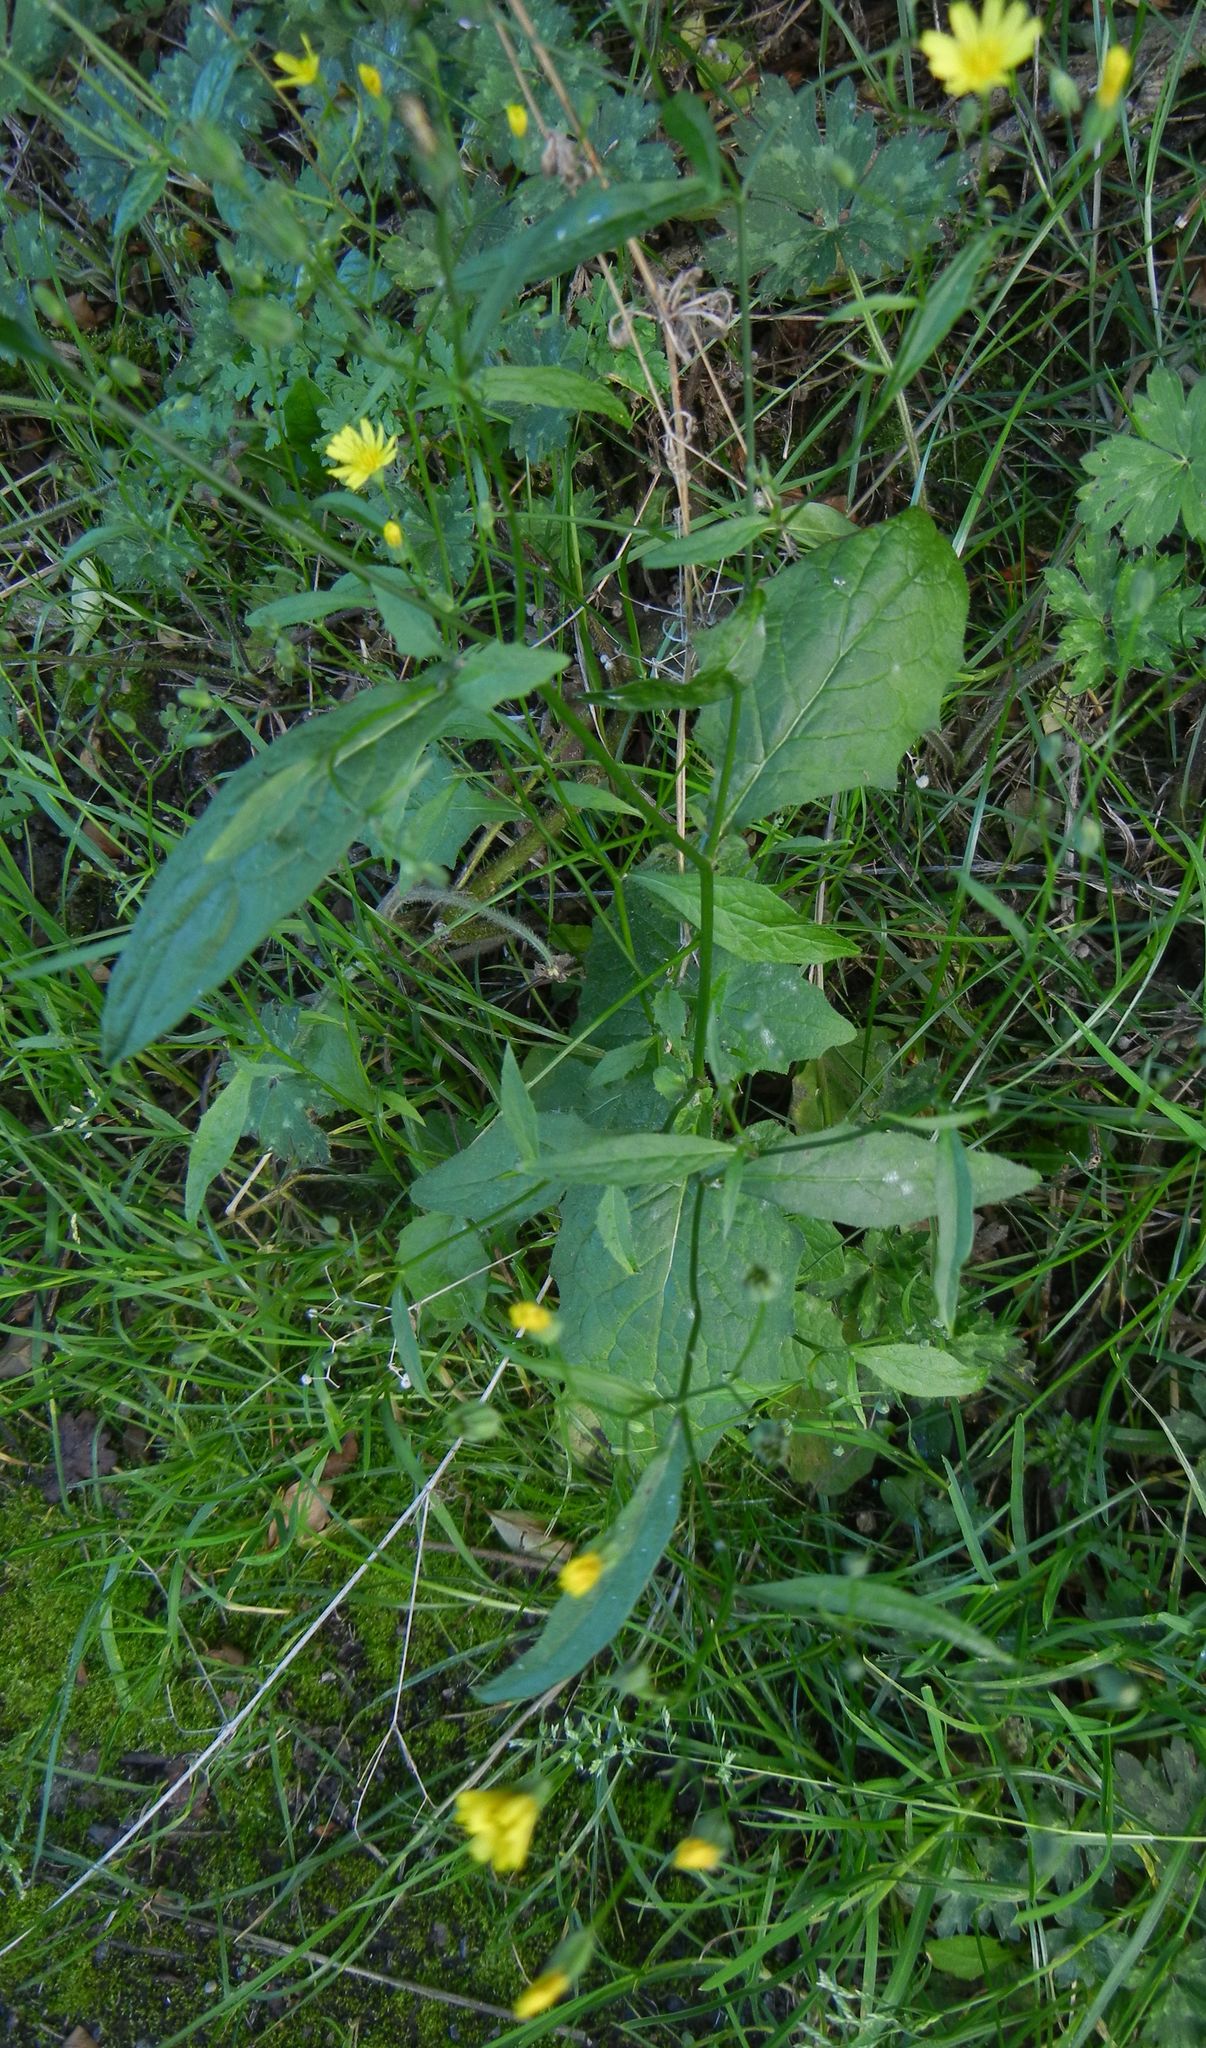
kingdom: Plantae
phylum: Tracheophyta
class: Magnoliopsida
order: Asterales
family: Asteraceae
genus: Lapsana
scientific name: Lapsana communis
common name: Nipplewort
